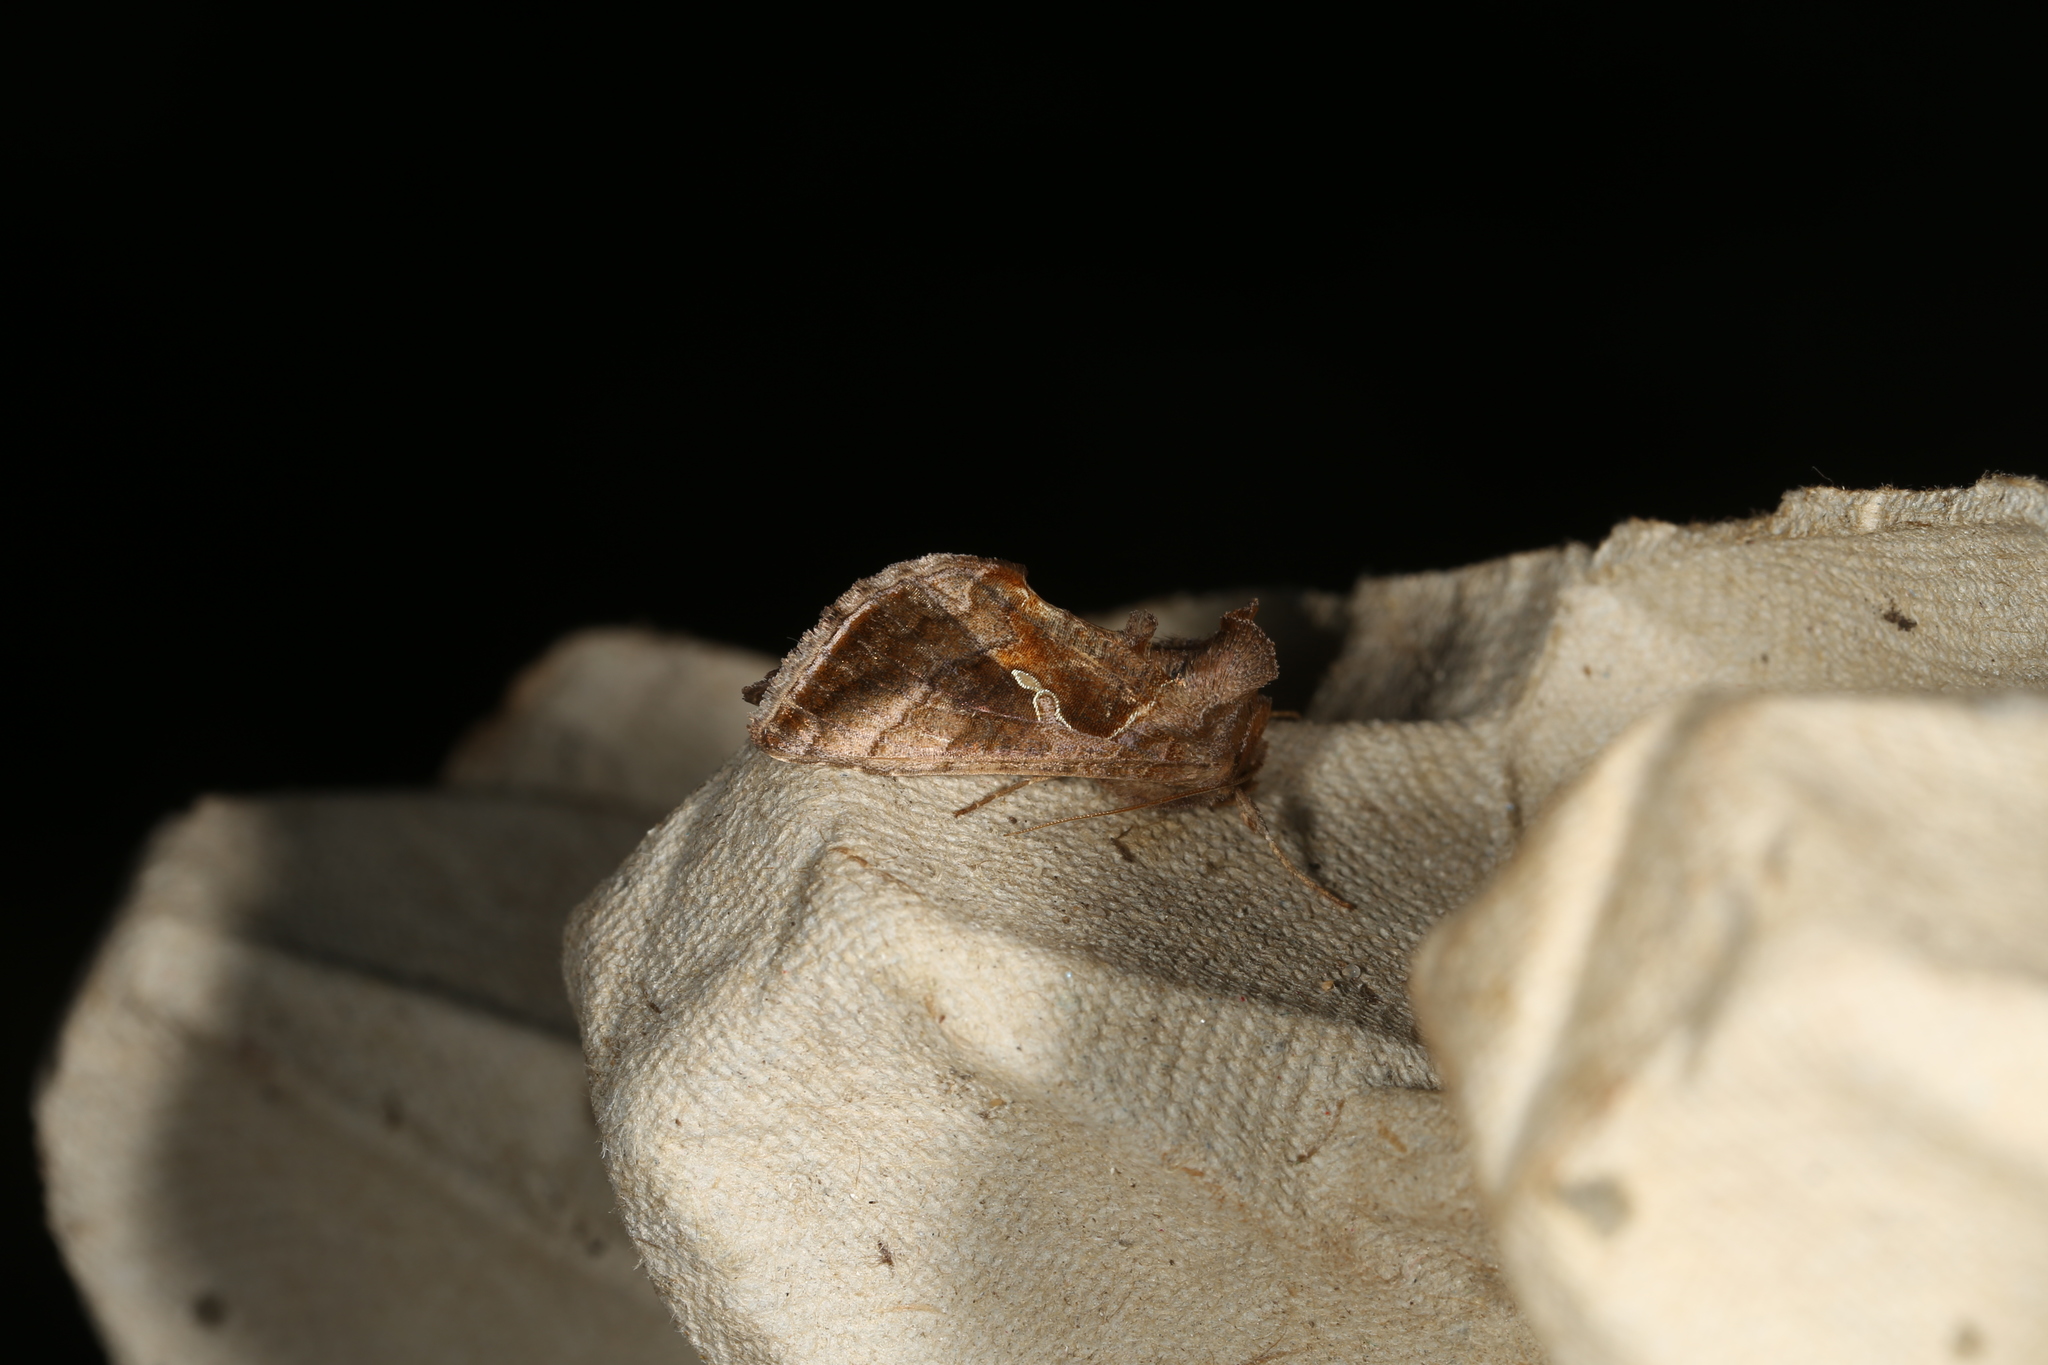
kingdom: Animalia
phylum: Arthropoda
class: Insecta
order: Lepidoptera
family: Noctuidae
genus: Chrysodeixis
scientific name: Chrysodeixis subsidens
